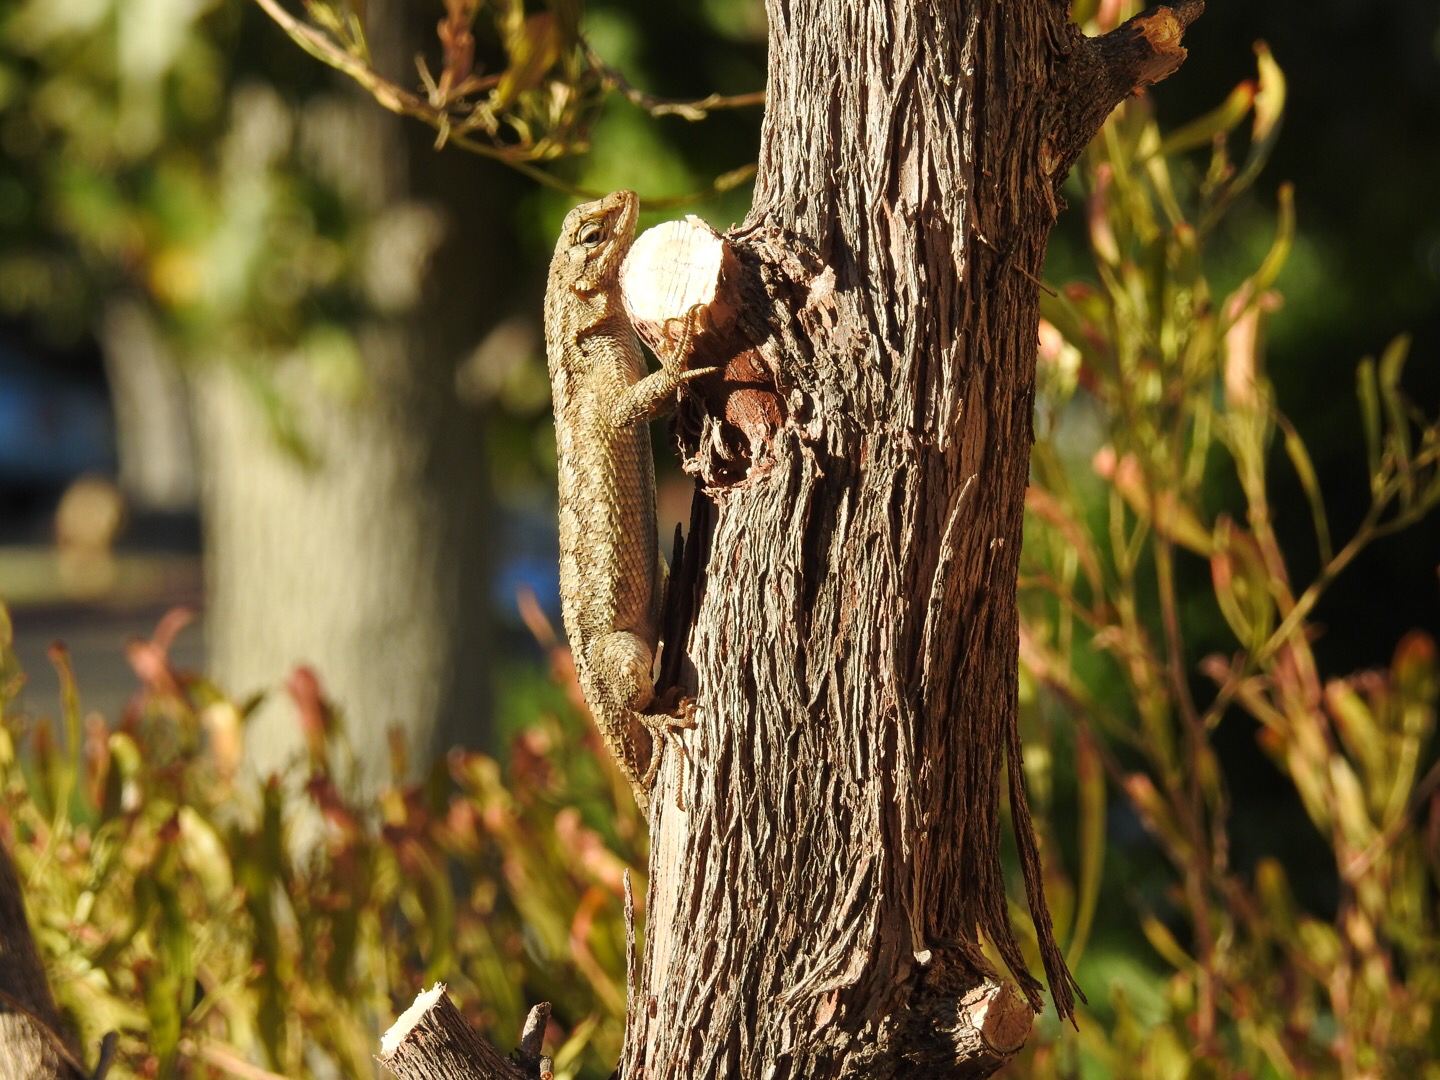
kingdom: Animalia
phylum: Chordata
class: Squamata
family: Phrynosomatidae
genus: Sceloporus
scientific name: Sceloporus occidentalis
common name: Western fence lizard
